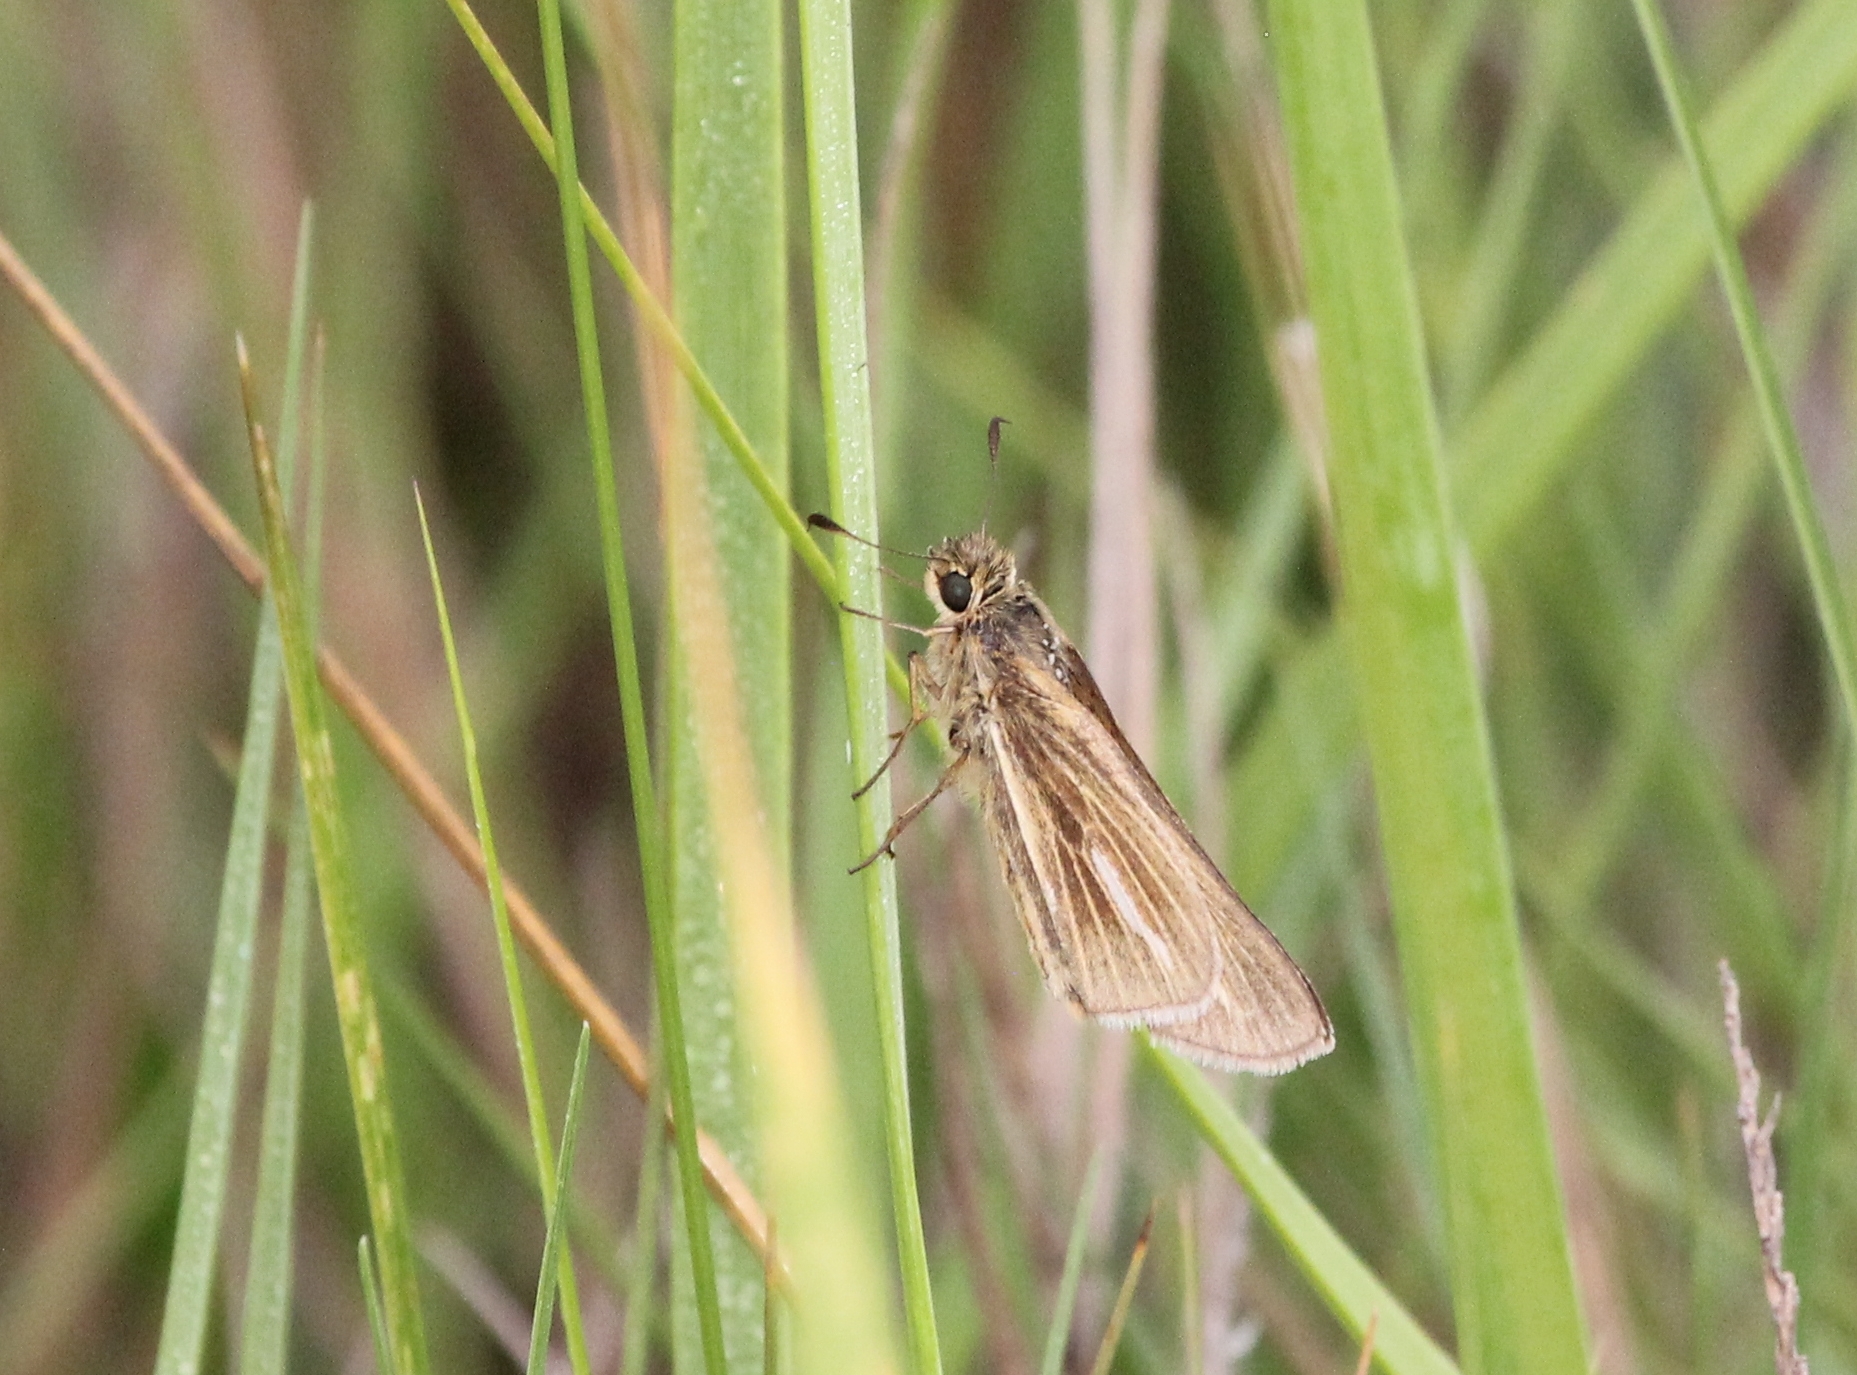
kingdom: Animalia
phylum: Arthropoda
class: Insecta
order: Lepidoptera
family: Hesperiidae
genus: Panoquina
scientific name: Panoquina panoquin
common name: Salt marsh skipper
